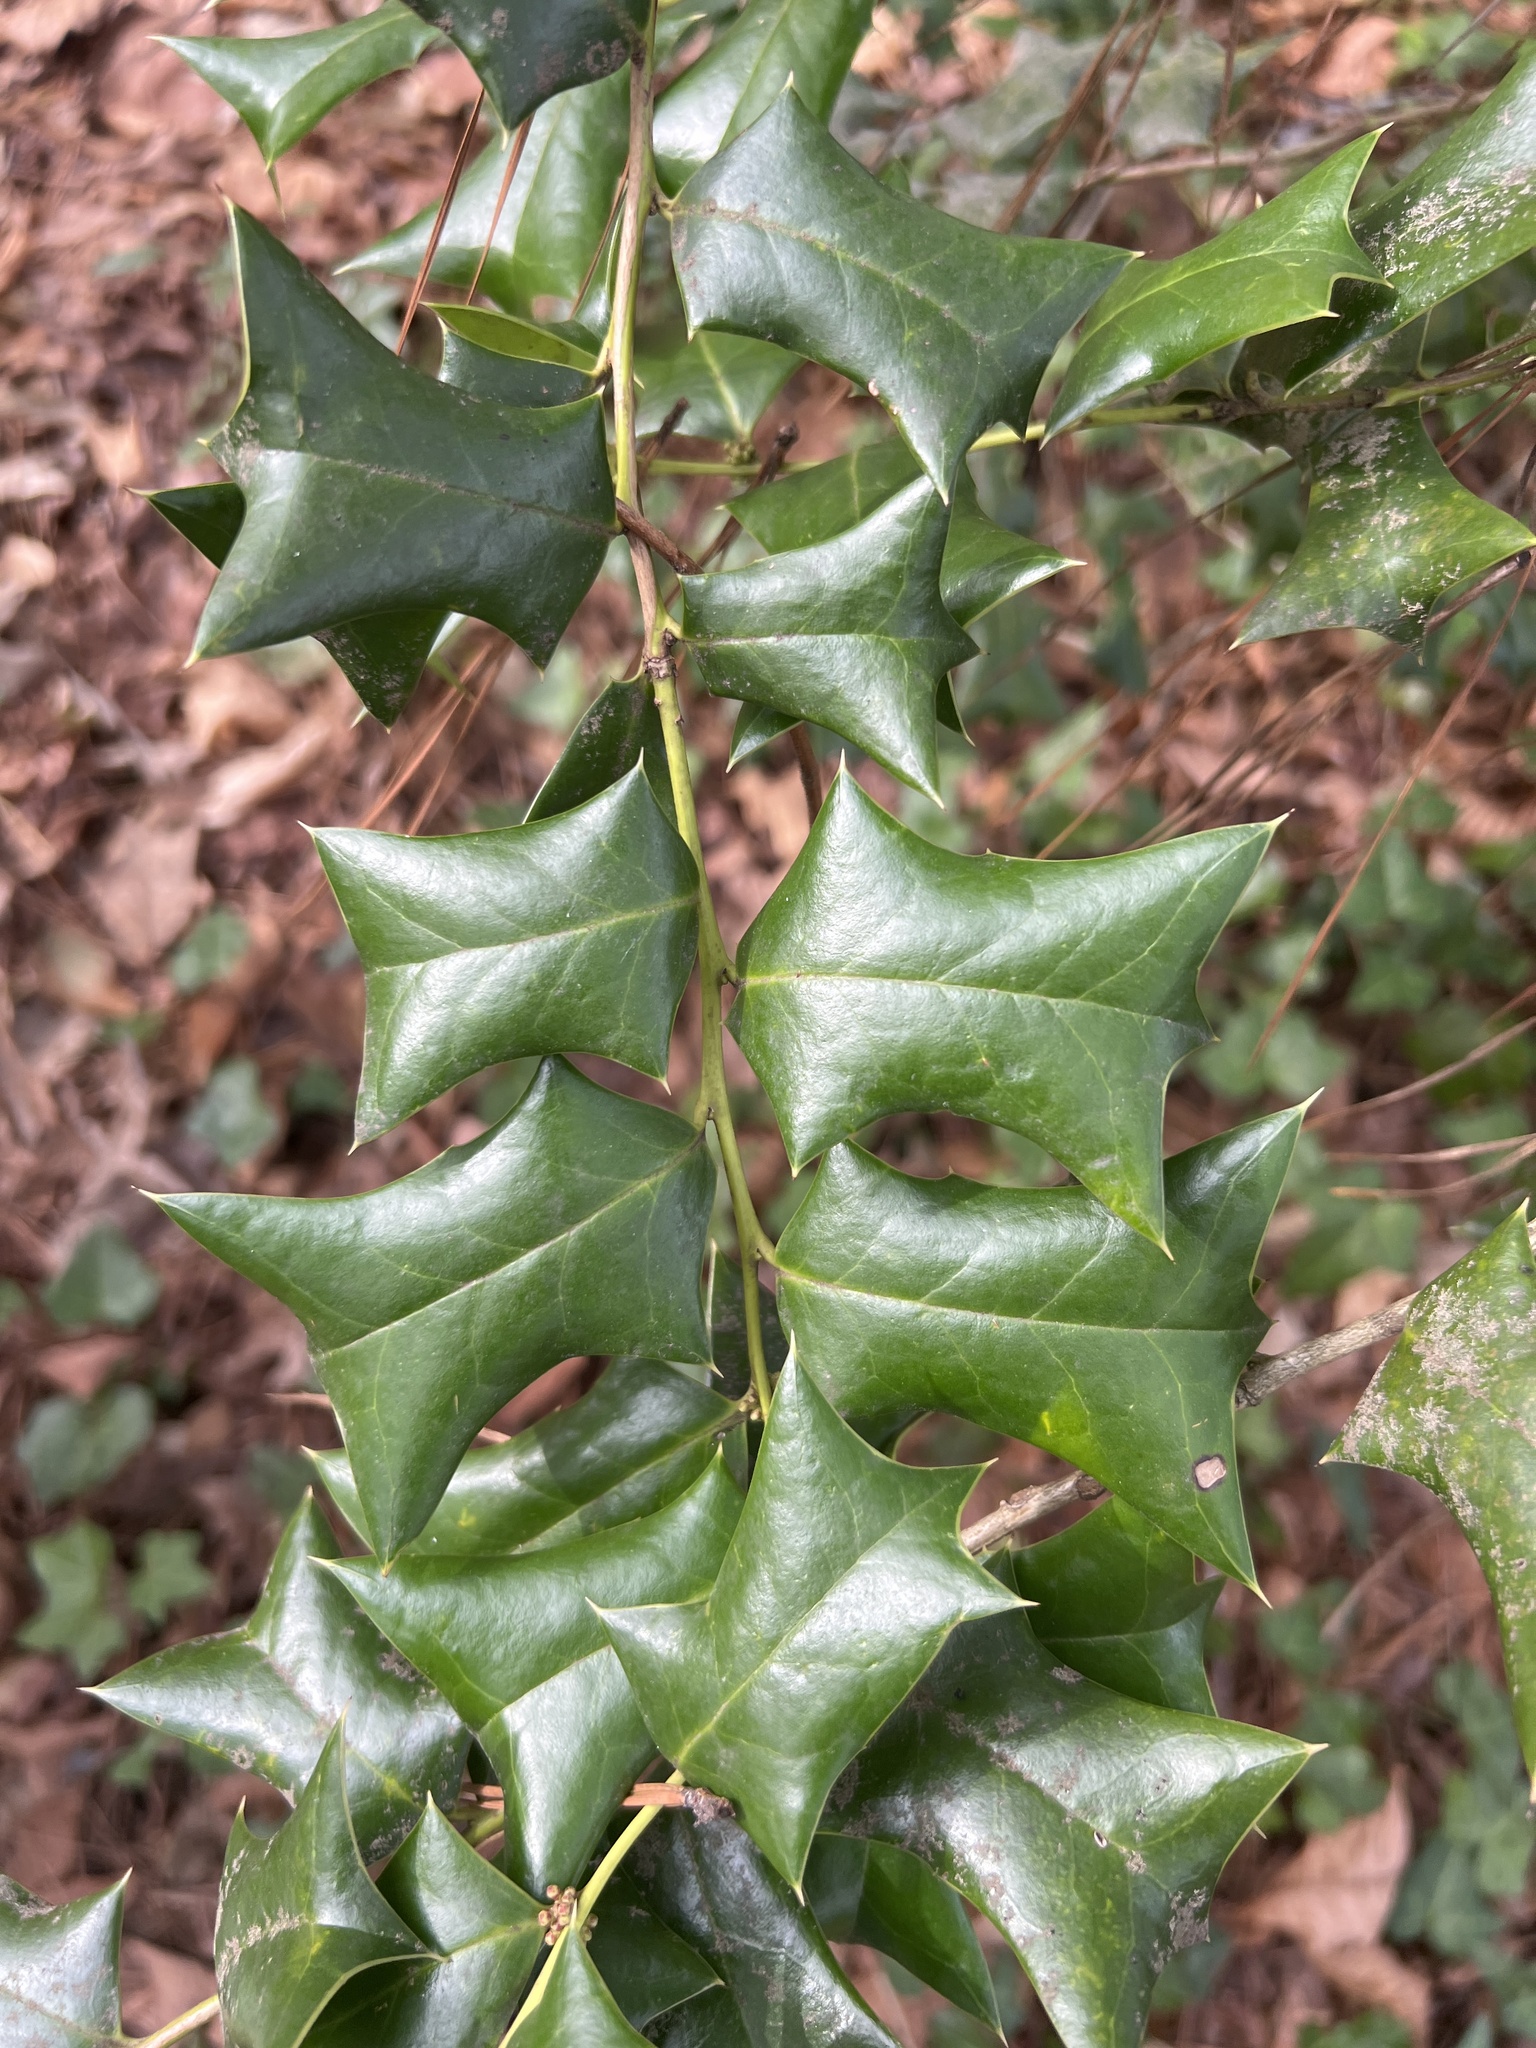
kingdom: Plantae
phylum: Tracheophyta
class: Magnoliopsida
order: Aquifoliales
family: Aquifoliaceae
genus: Ilex
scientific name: Ilex cornuta
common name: Chinese holly
